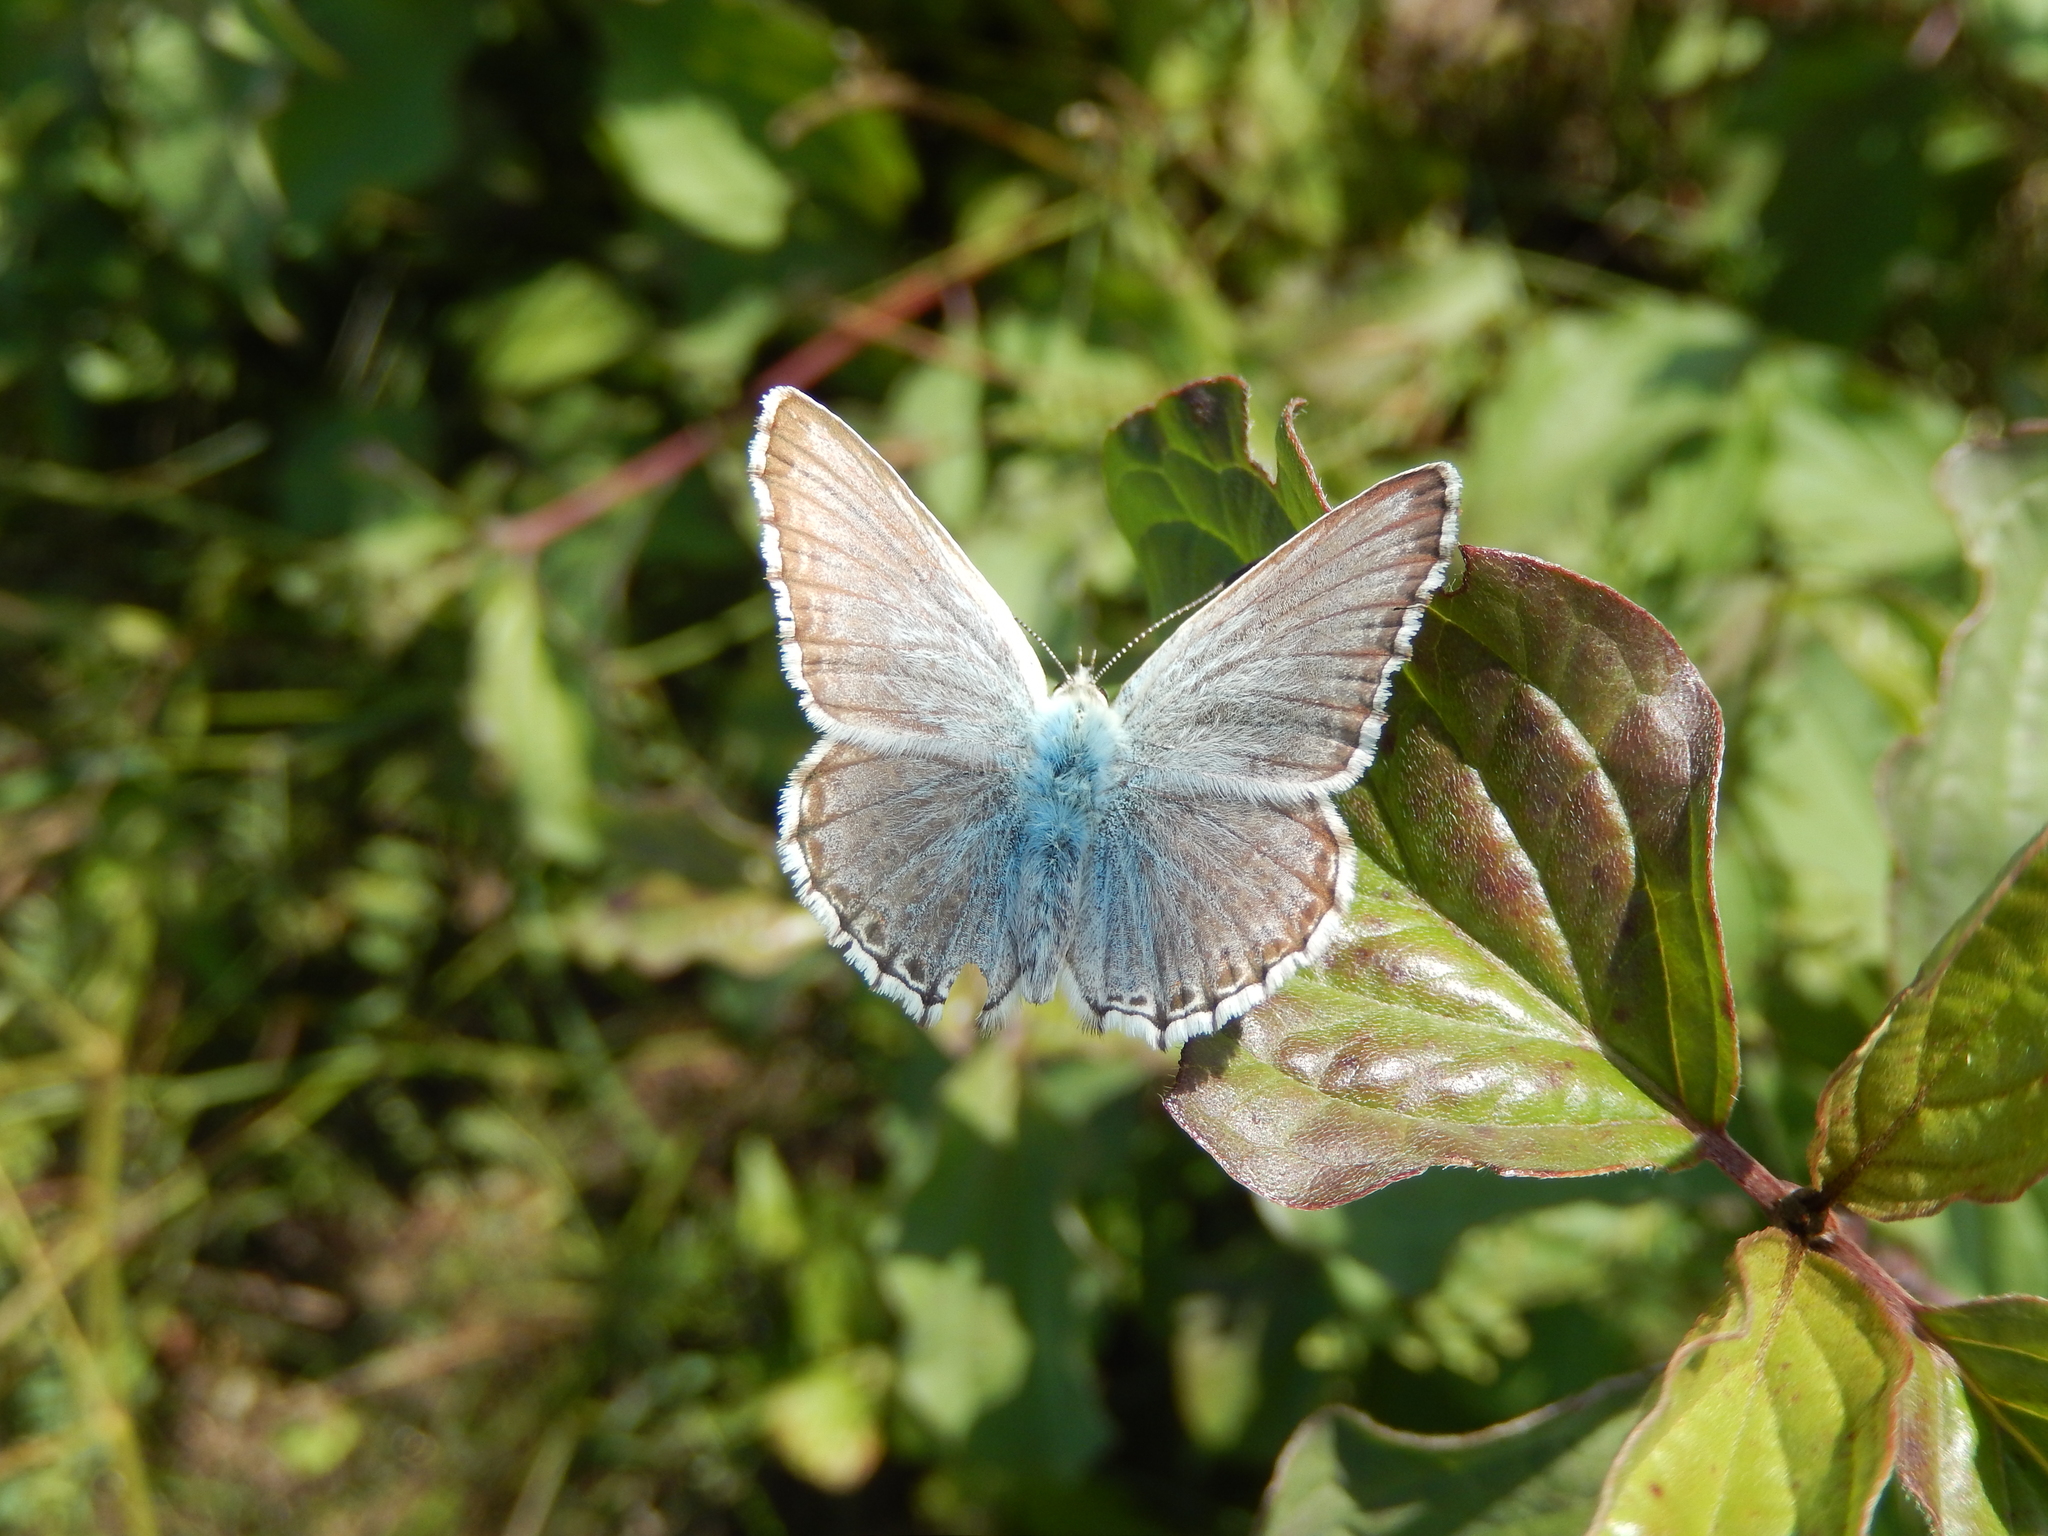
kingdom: Animalia
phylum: Arthropoda
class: Insecta
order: Lepidoptera
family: Lycaenidae
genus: Lysandra
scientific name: Lysandra coridon
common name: Chalkhill blue
